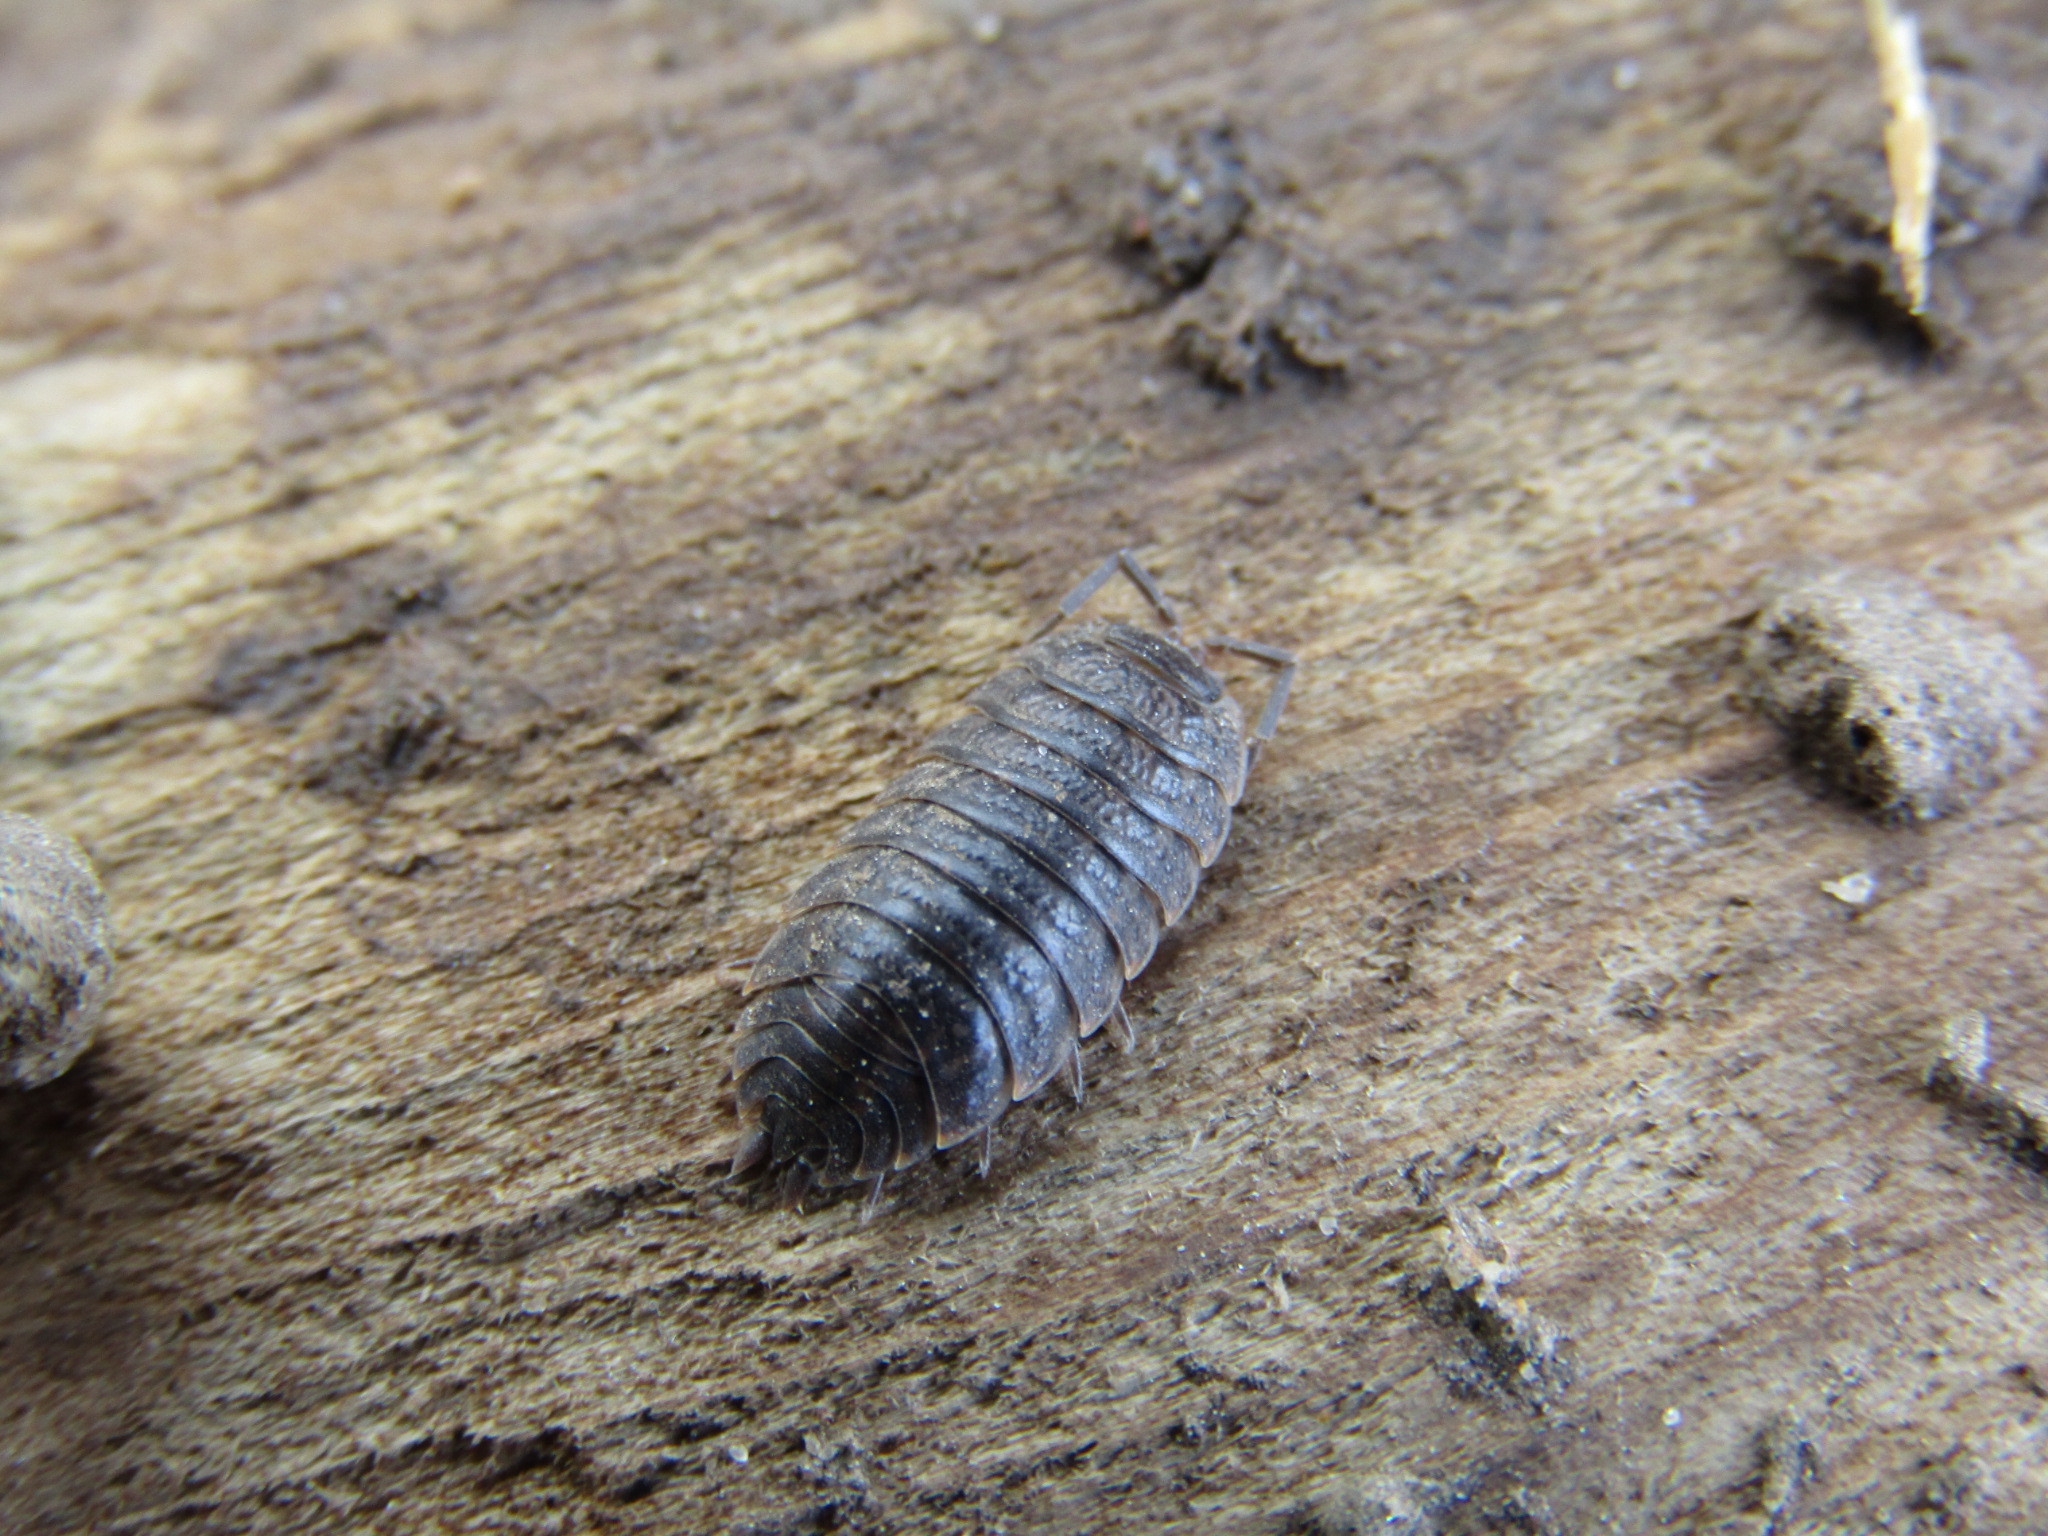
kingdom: Animalia
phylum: Arthropoda
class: Malacostraca
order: Isopoda
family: Trachelipodidae
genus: Trachelipus
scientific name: Trachelipus rathkii
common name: Isopod
